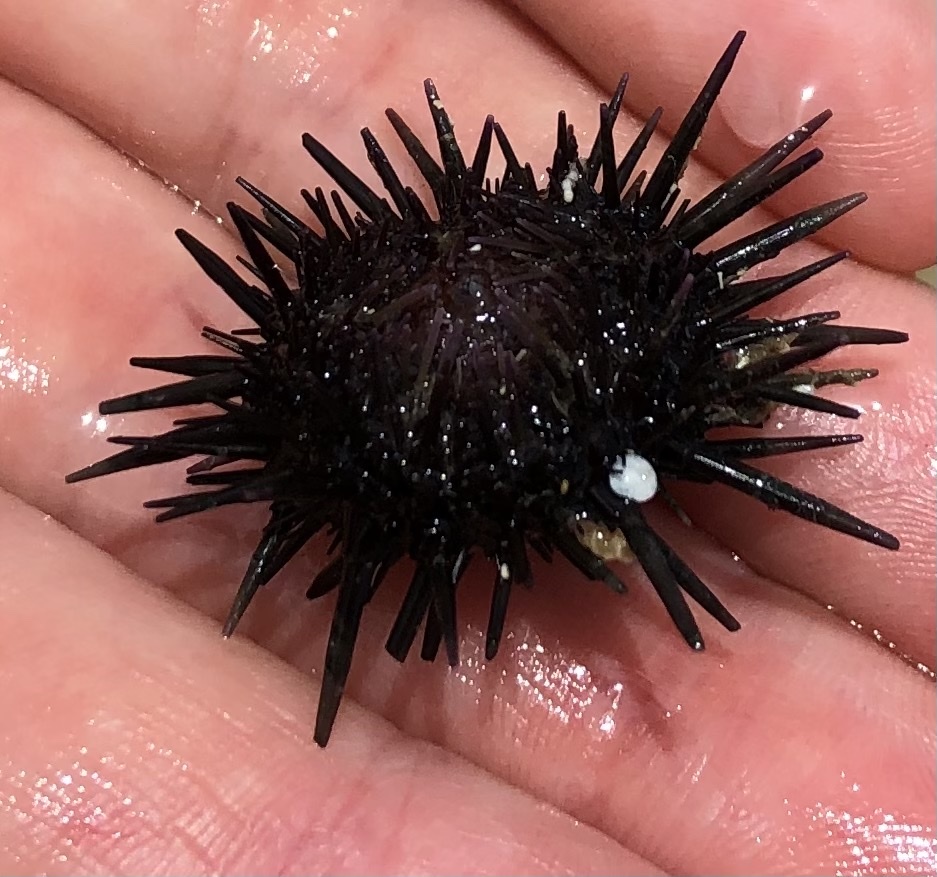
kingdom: Animalia
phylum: Echinodermata
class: Echinoidea
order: Camarodonta
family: Echinometridae
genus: Echinometra
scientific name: Echinometra lucunter
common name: Rock urchin
